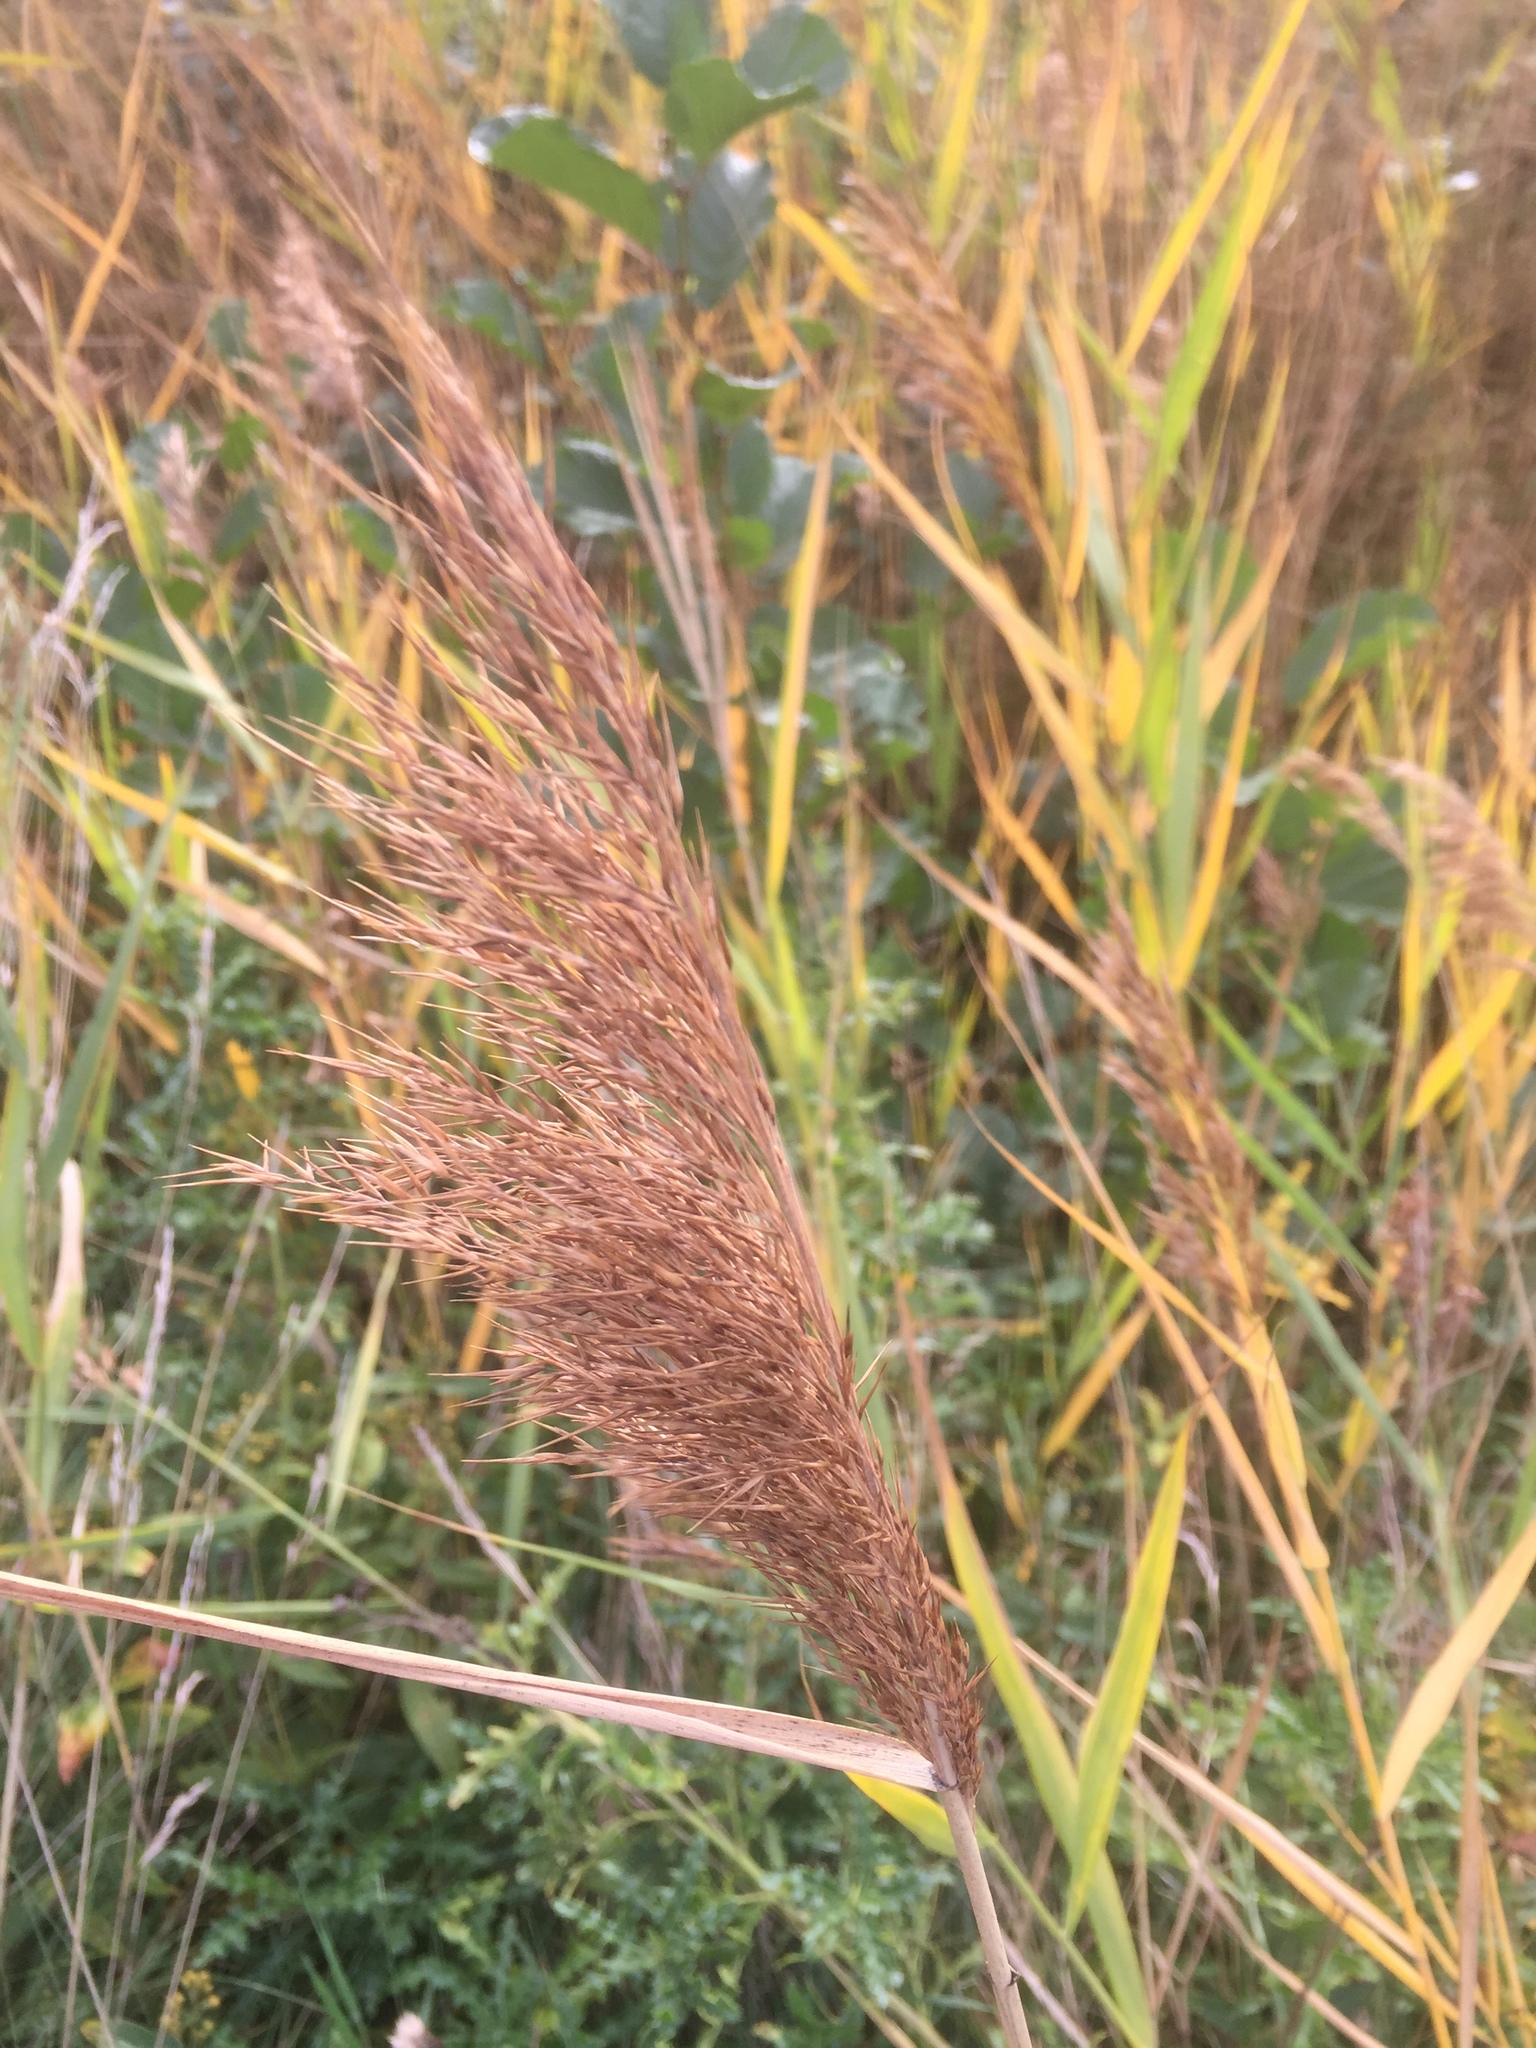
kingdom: Plantae
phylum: Tracheophyta
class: Liliopsida
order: Poales
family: Poaceae
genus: Phragmites
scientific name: Phragmites australis
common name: Common reed
